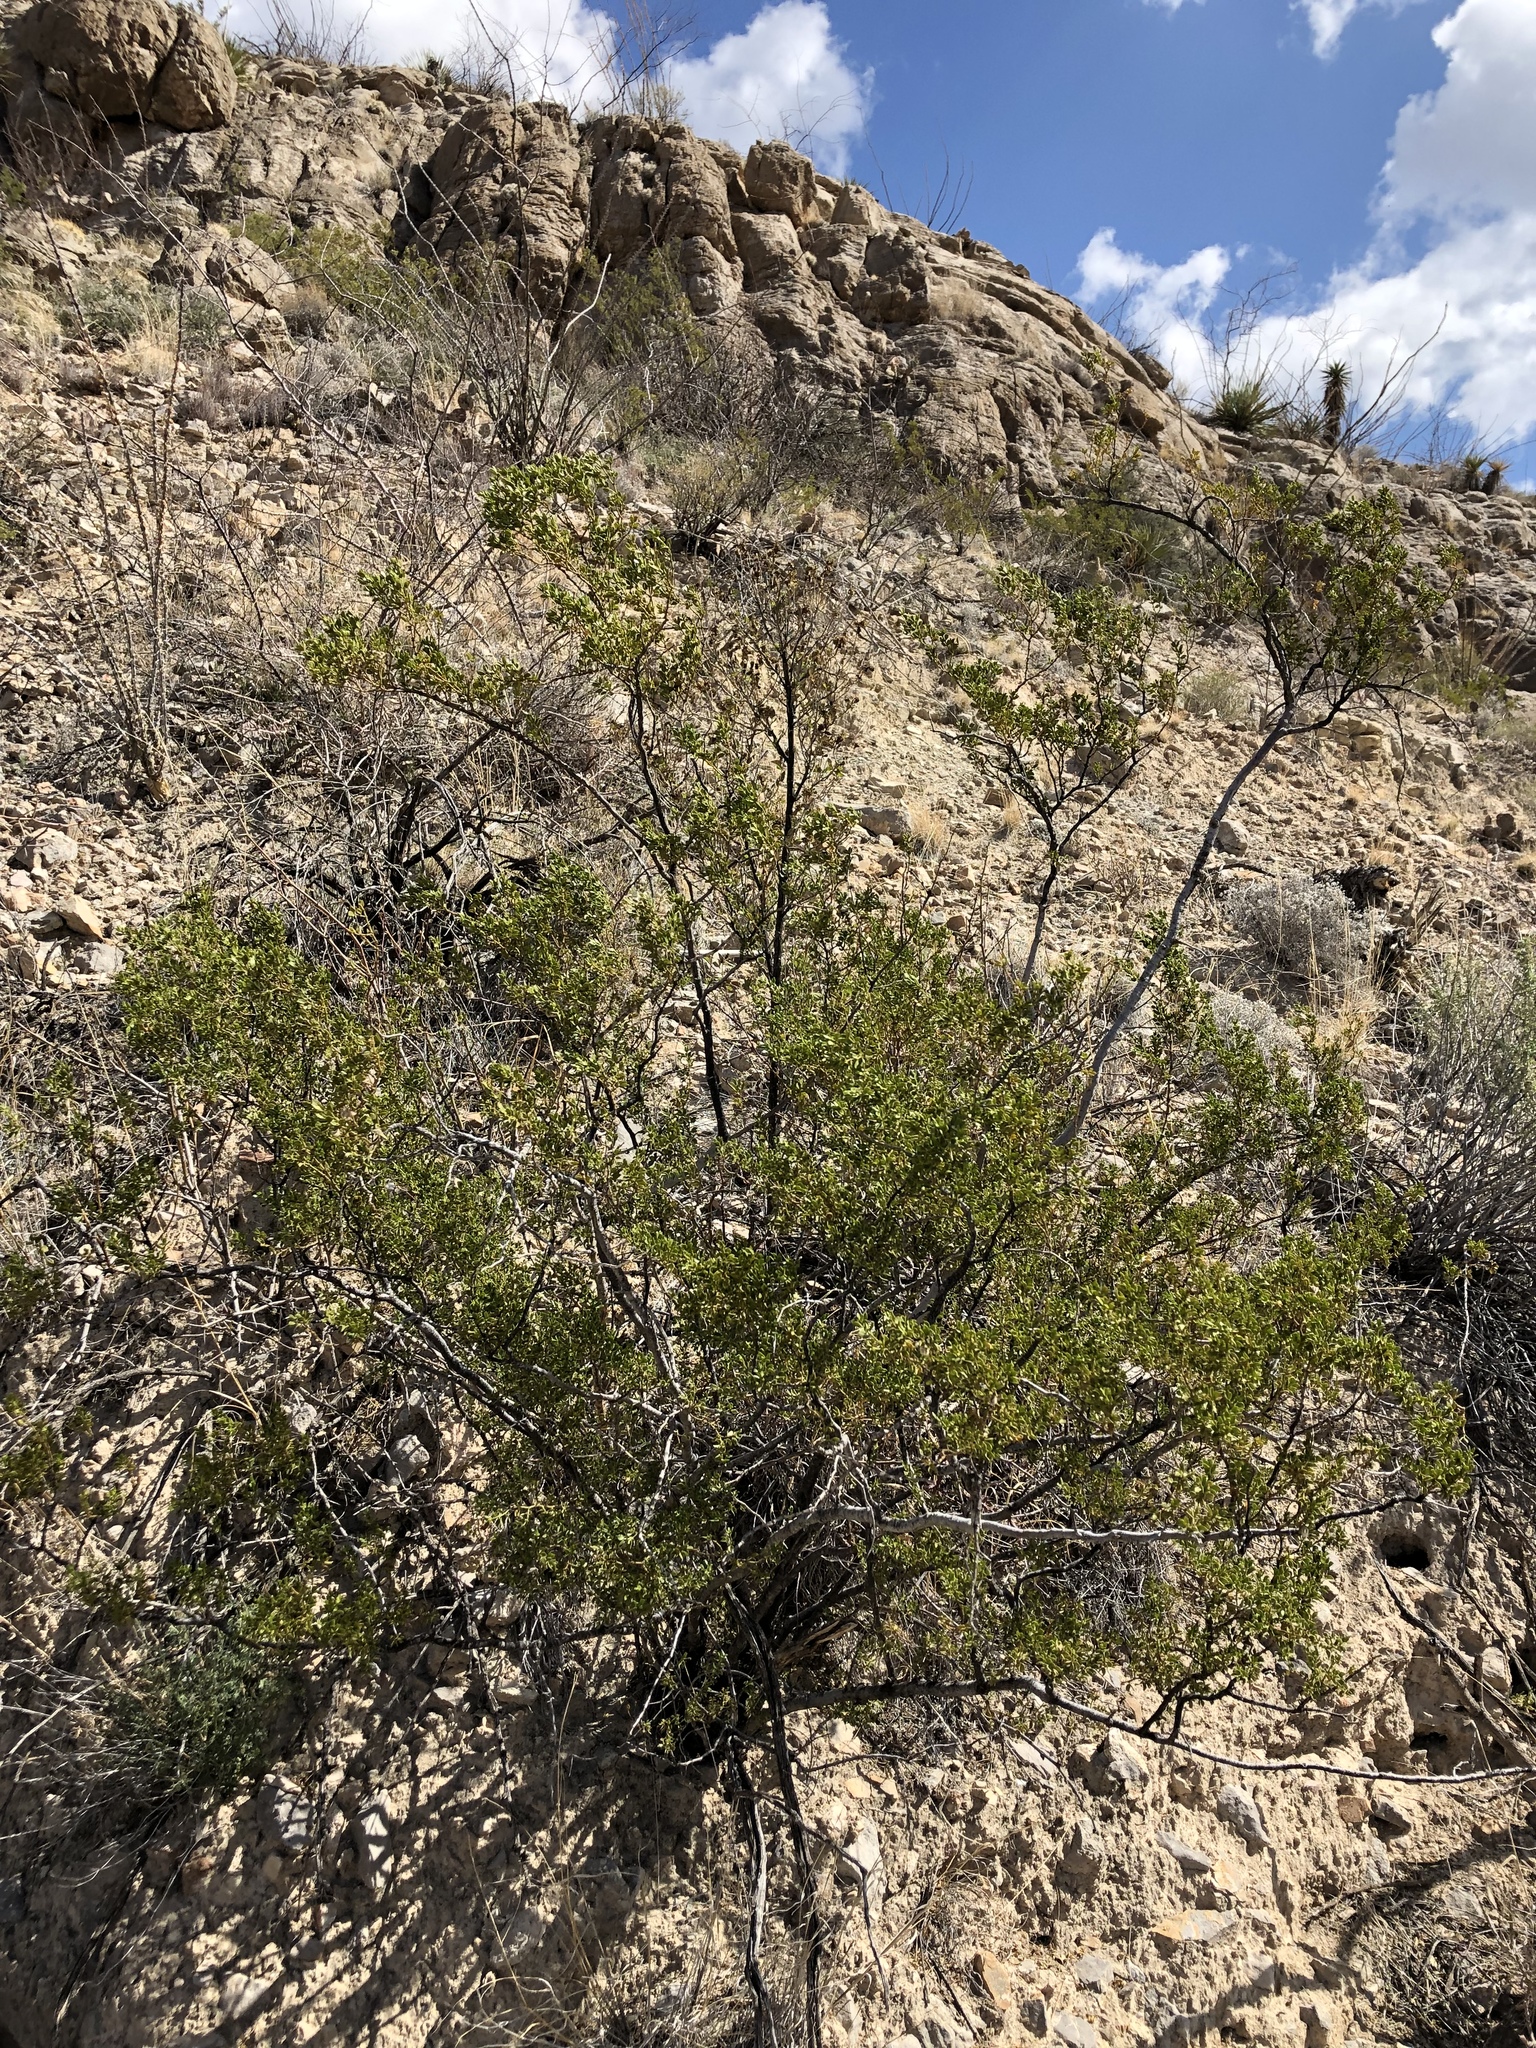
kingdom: Plantae
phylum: Tracheophyta
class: Magnoliopsida
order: Zygophyllales
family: Zygophyllaceae
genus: Larrea
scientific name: Larrea tridentata
